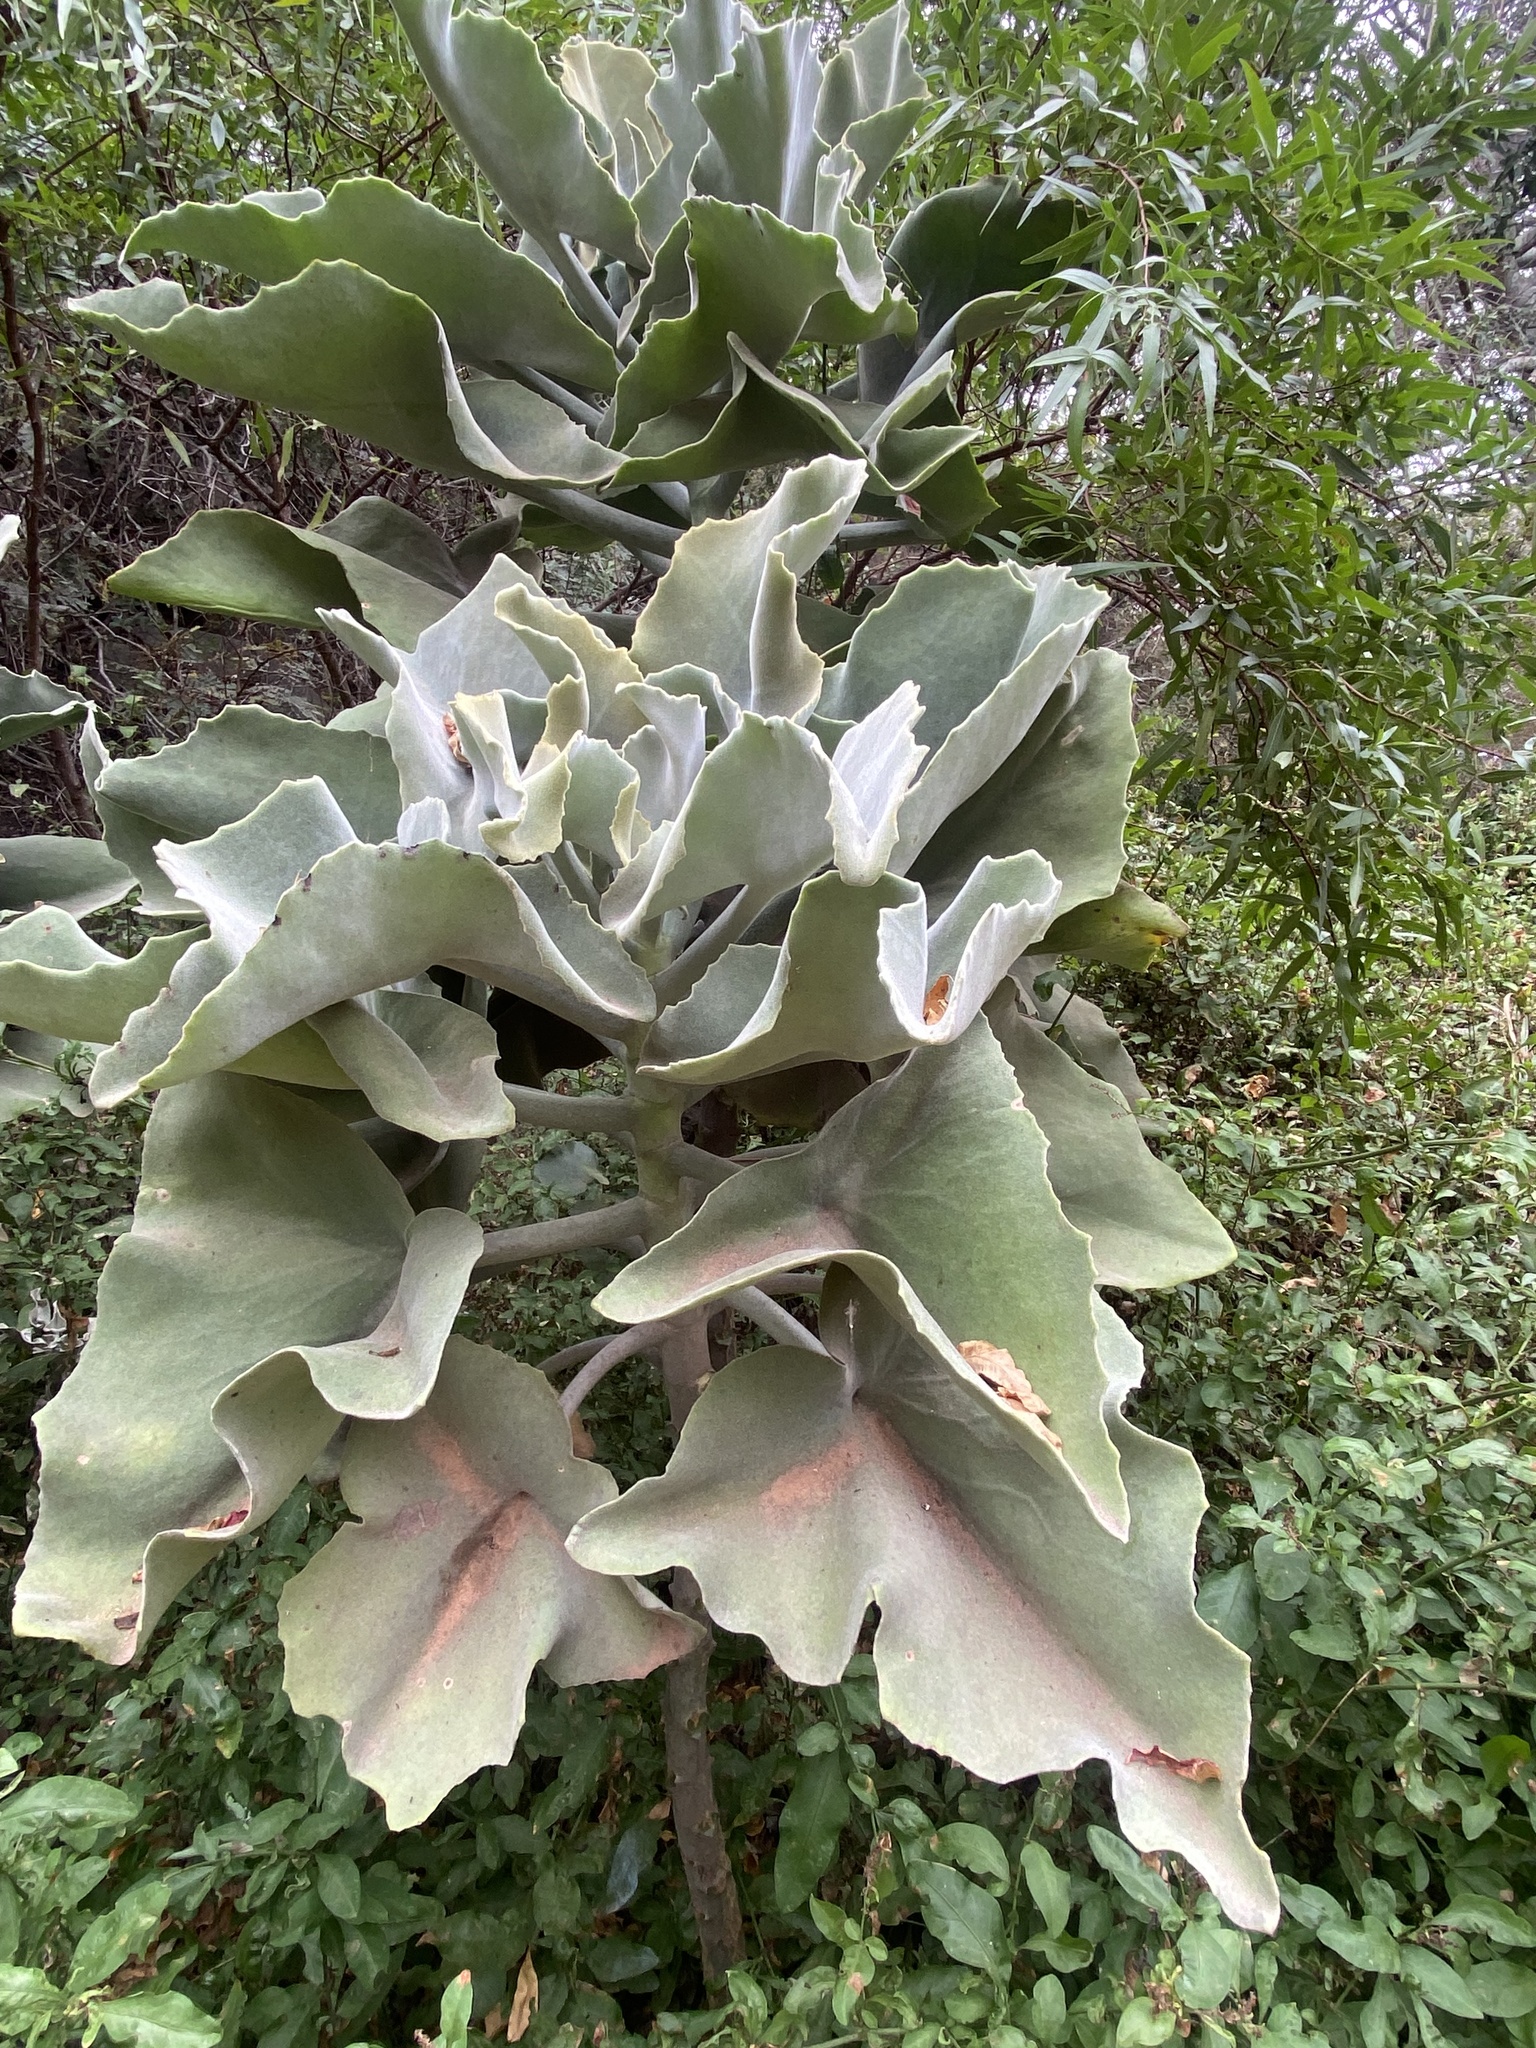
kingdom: Plantae
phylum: Tracheophyta
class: Magnoliopsida
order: Saxifragales
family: Crassulaceae
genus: Kalanchoe
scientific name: Kalanchoe beharensis
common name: Velvet leaf
